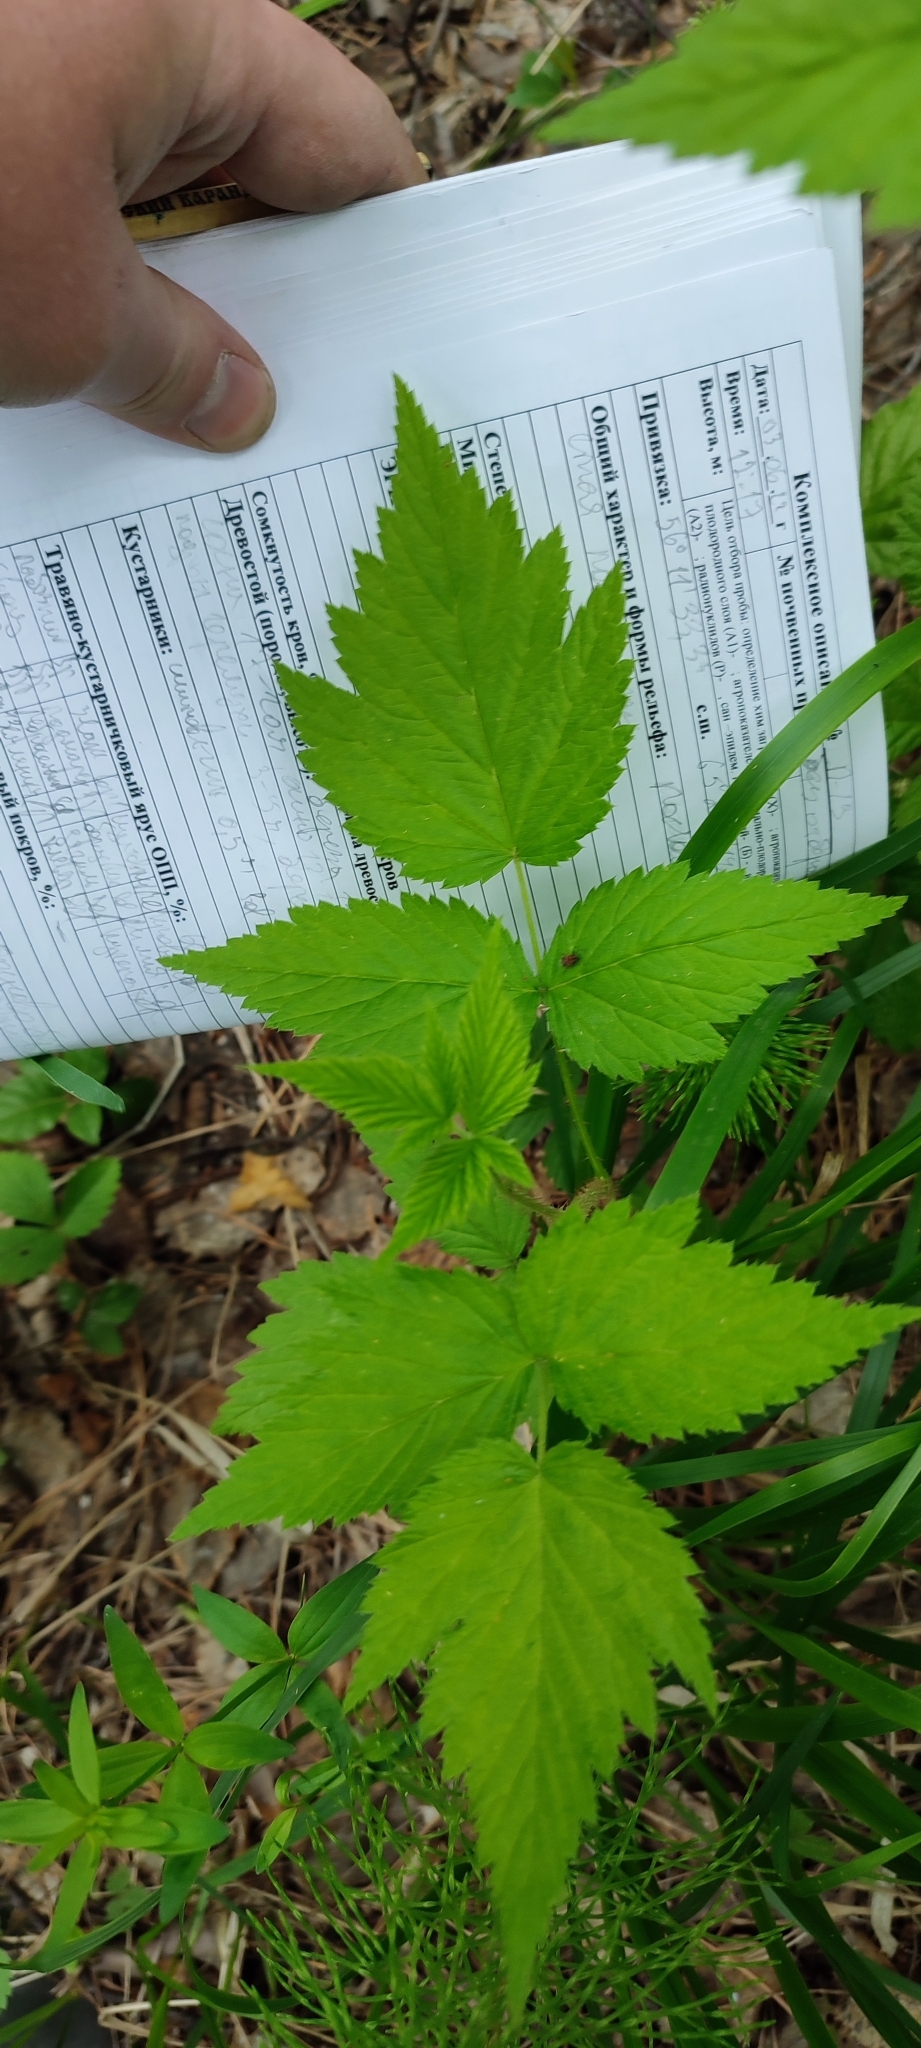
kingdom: Plantae
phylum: Tracheophyta
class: Magnoliopsida
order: Rosales
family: Rosaceae
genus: Rubus
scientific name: Rubus idaeus
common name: Raspberry
